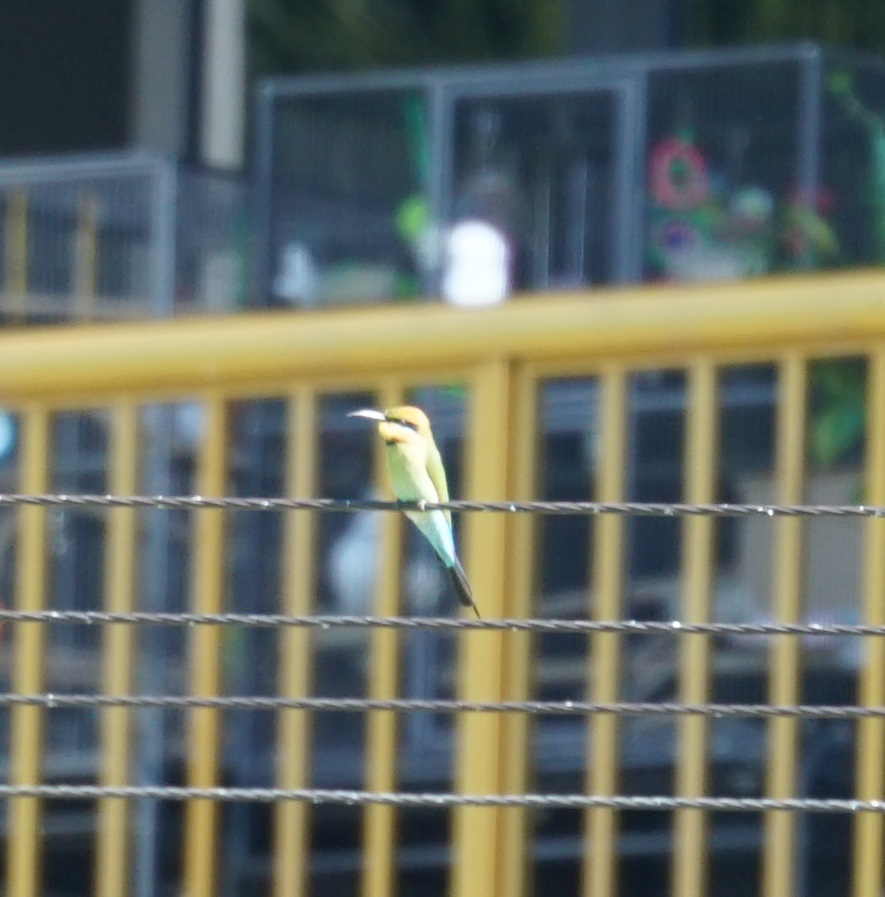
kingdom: Animalia
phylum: Chordata
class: Aves
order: Coraciiformes
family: Meropidae
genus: Merops
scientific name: Merops ornatus
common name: Rainbow bee-eater
